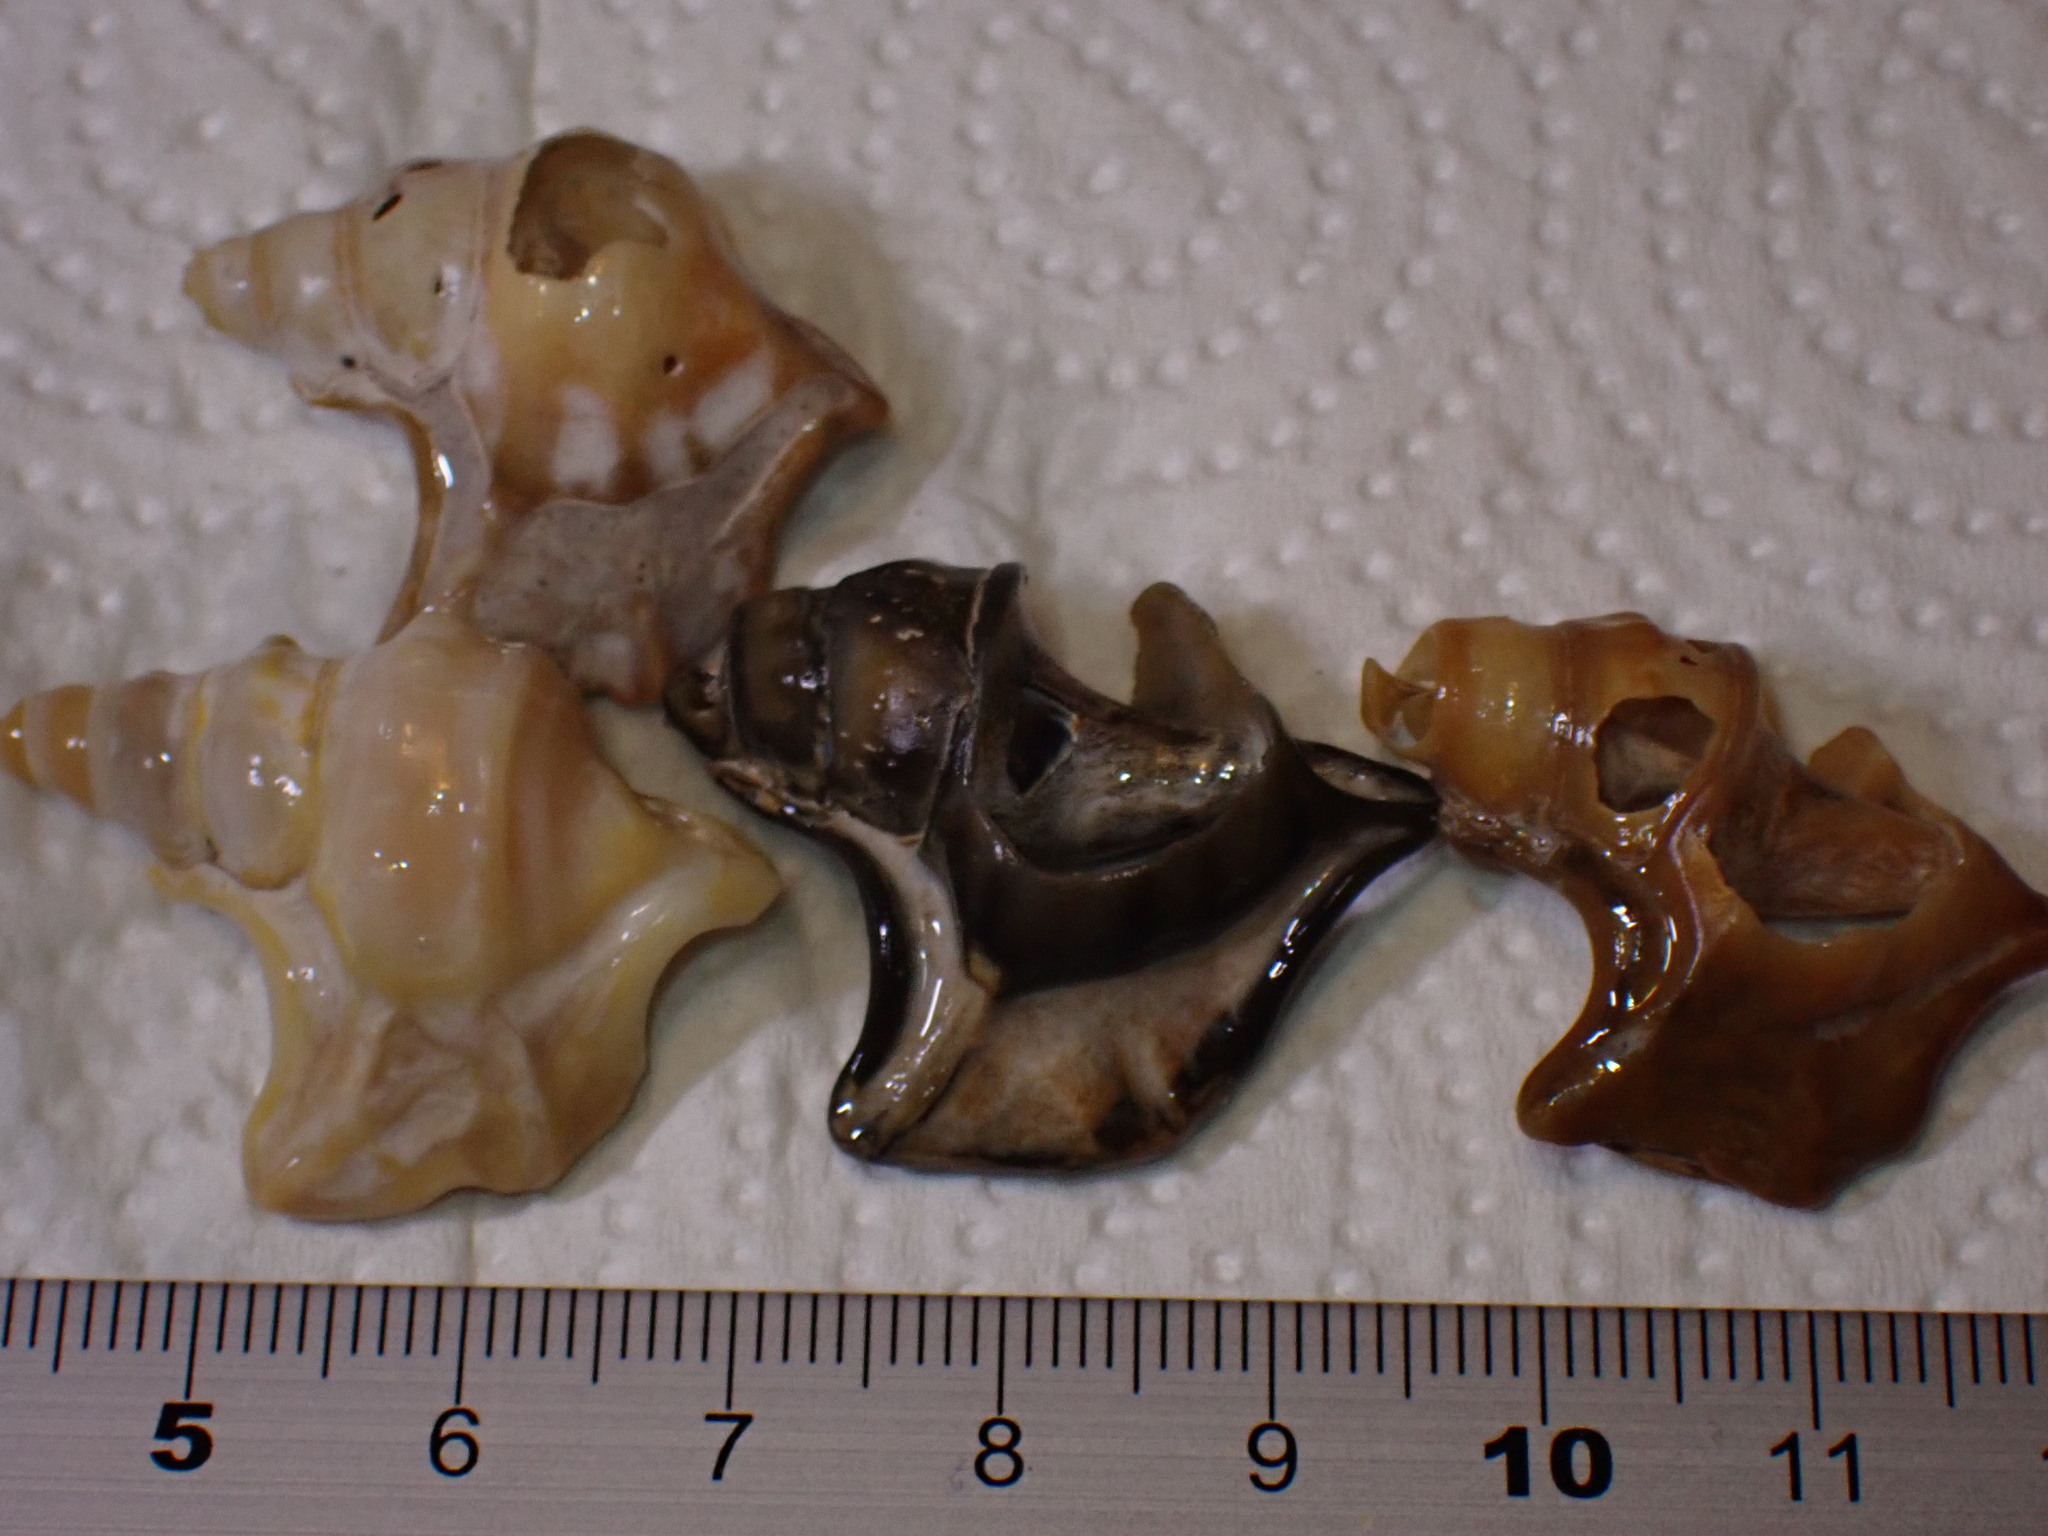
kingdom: Animalia
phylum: Mollusca
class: Gastropoda
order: Littorinimorpha
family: Aporrhaidae
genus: Aporrhais
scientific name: Aporrhais pespelecani
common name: Common pelican’s foot
